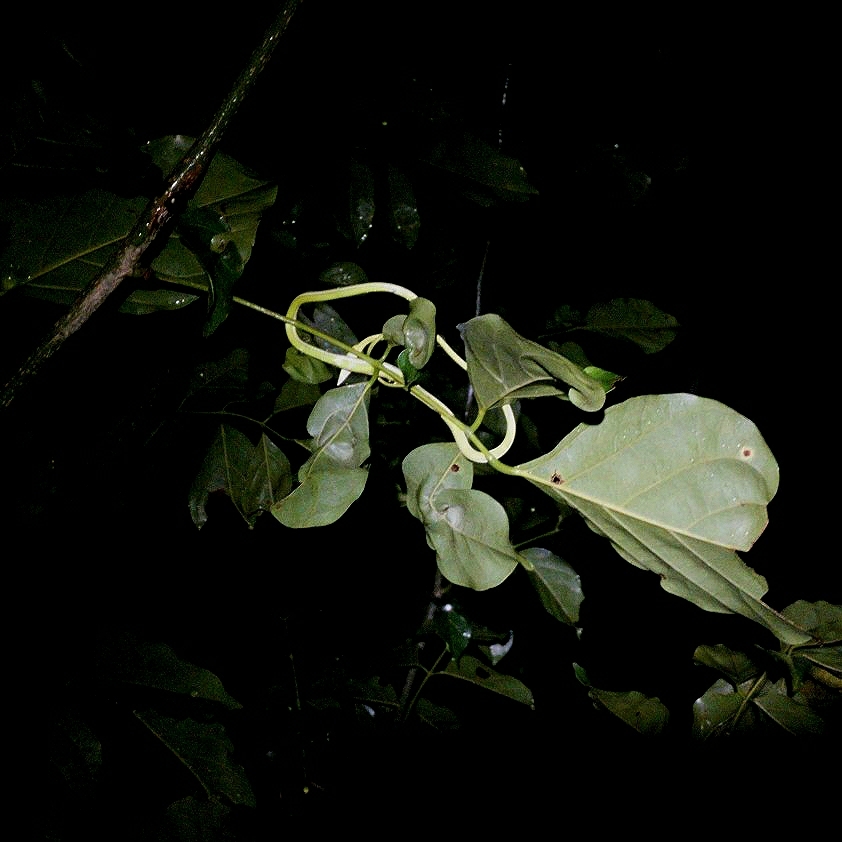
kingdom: Animalia
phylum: Chordata
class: Squamata
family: Colubridae
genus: Ahaetulla
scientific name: Ahaetulla oxyrhyncha
